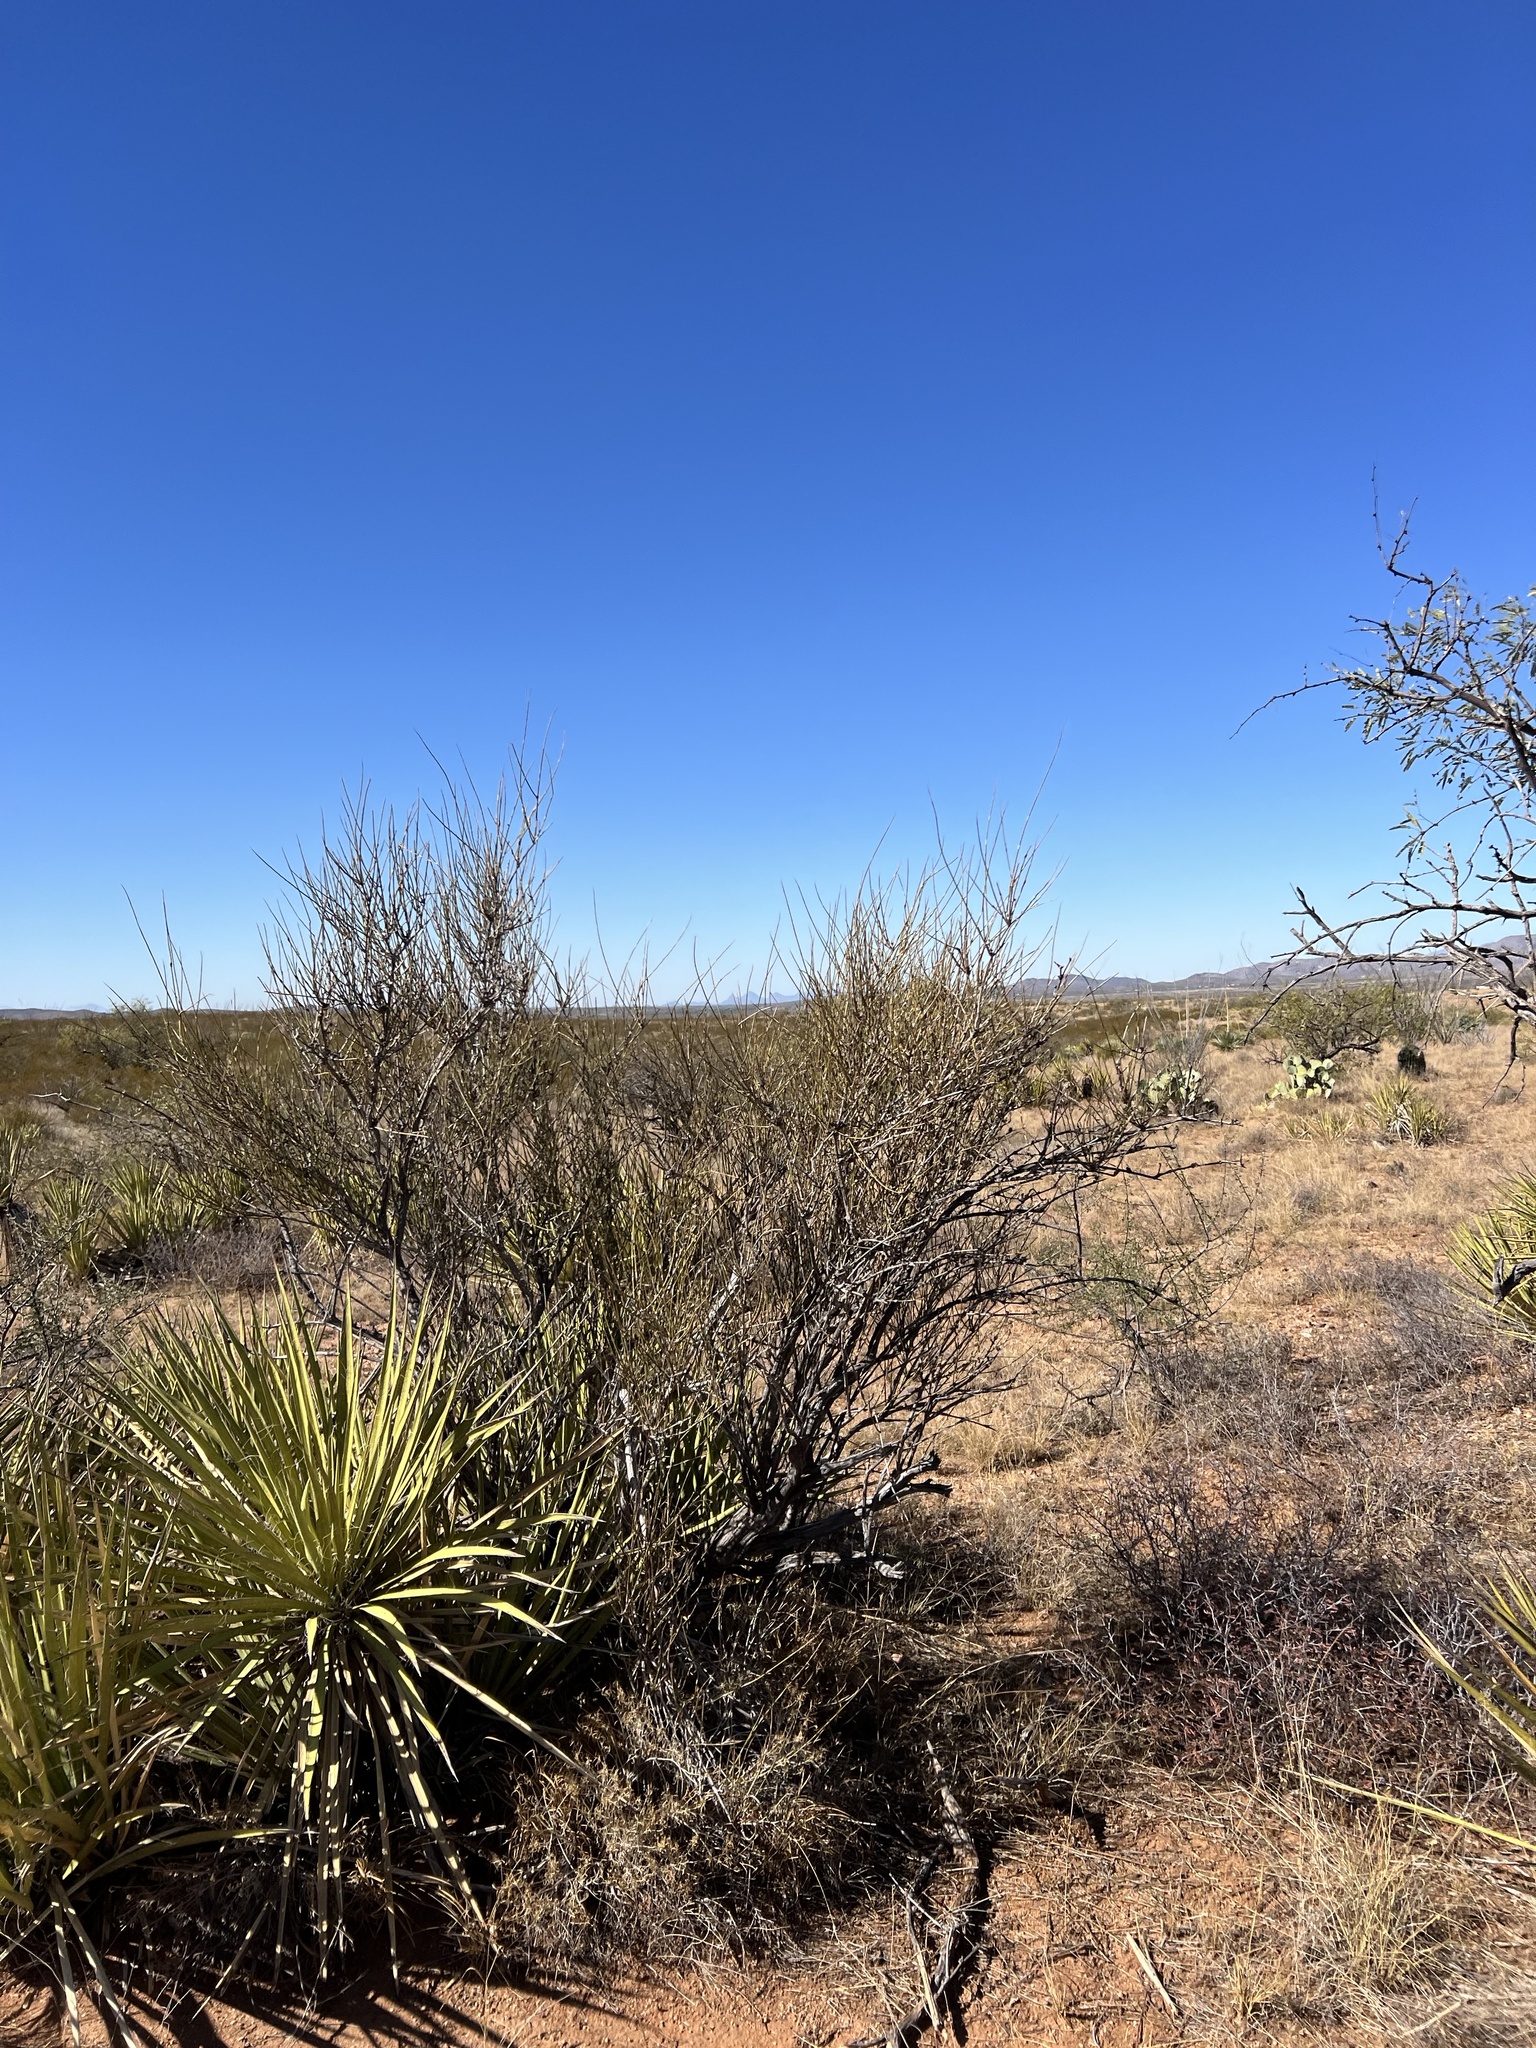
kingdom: Plantae
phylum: Tracheophyta
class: Gnetopsida
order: Ephedrales
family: Ephedraceae
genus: Ephedra
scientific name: Ephedra trifurca
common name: Mexican-tea
